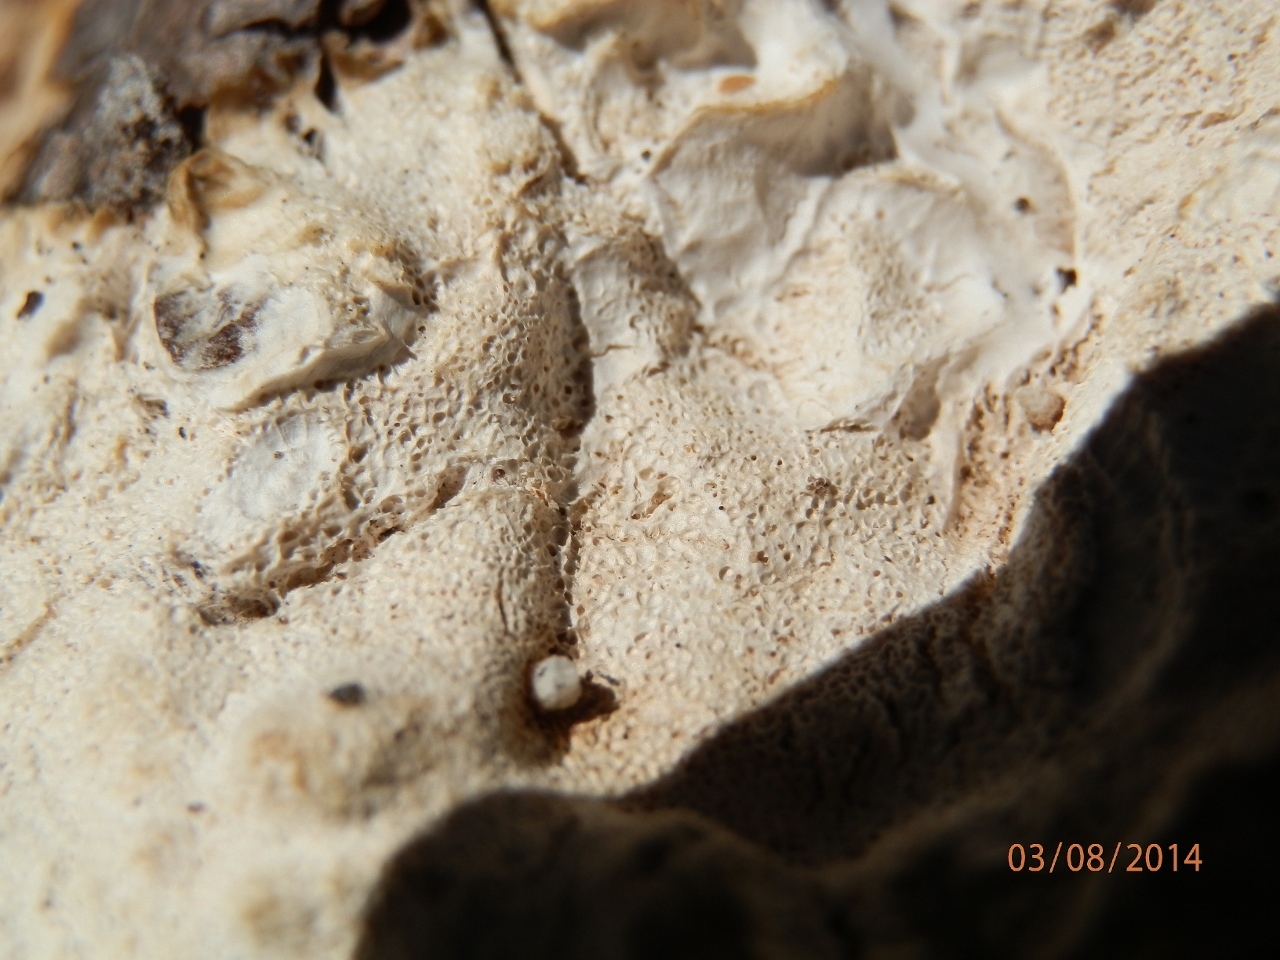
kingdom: Fungi
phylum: Basidiomycota
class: Agaricomycetes
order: Polyporales
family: Polyporaceae
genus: Dichomitus
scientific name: Dichomitus squalens
